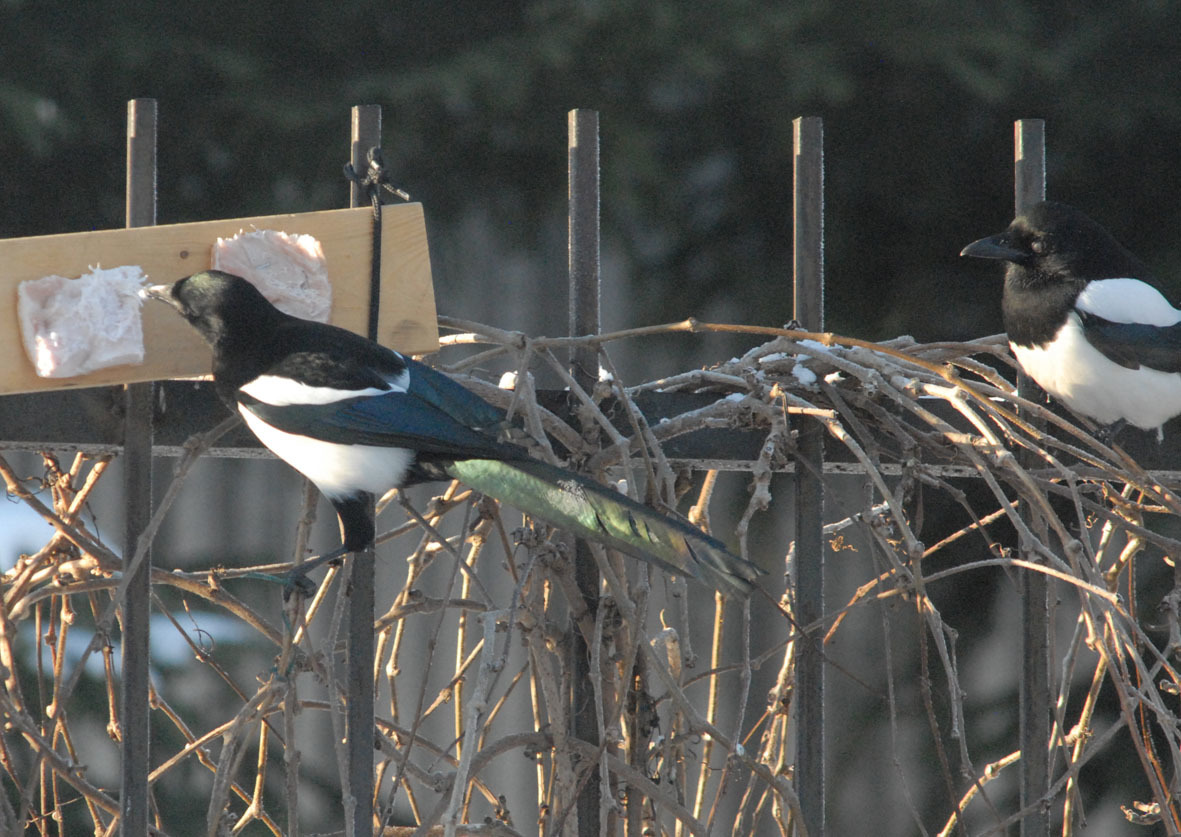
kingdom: Animalia
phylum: Chordata
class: Aves
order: Passeriformes
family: Corvidae
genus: Pica
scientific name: Pica pica
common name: Eurasian magpie
